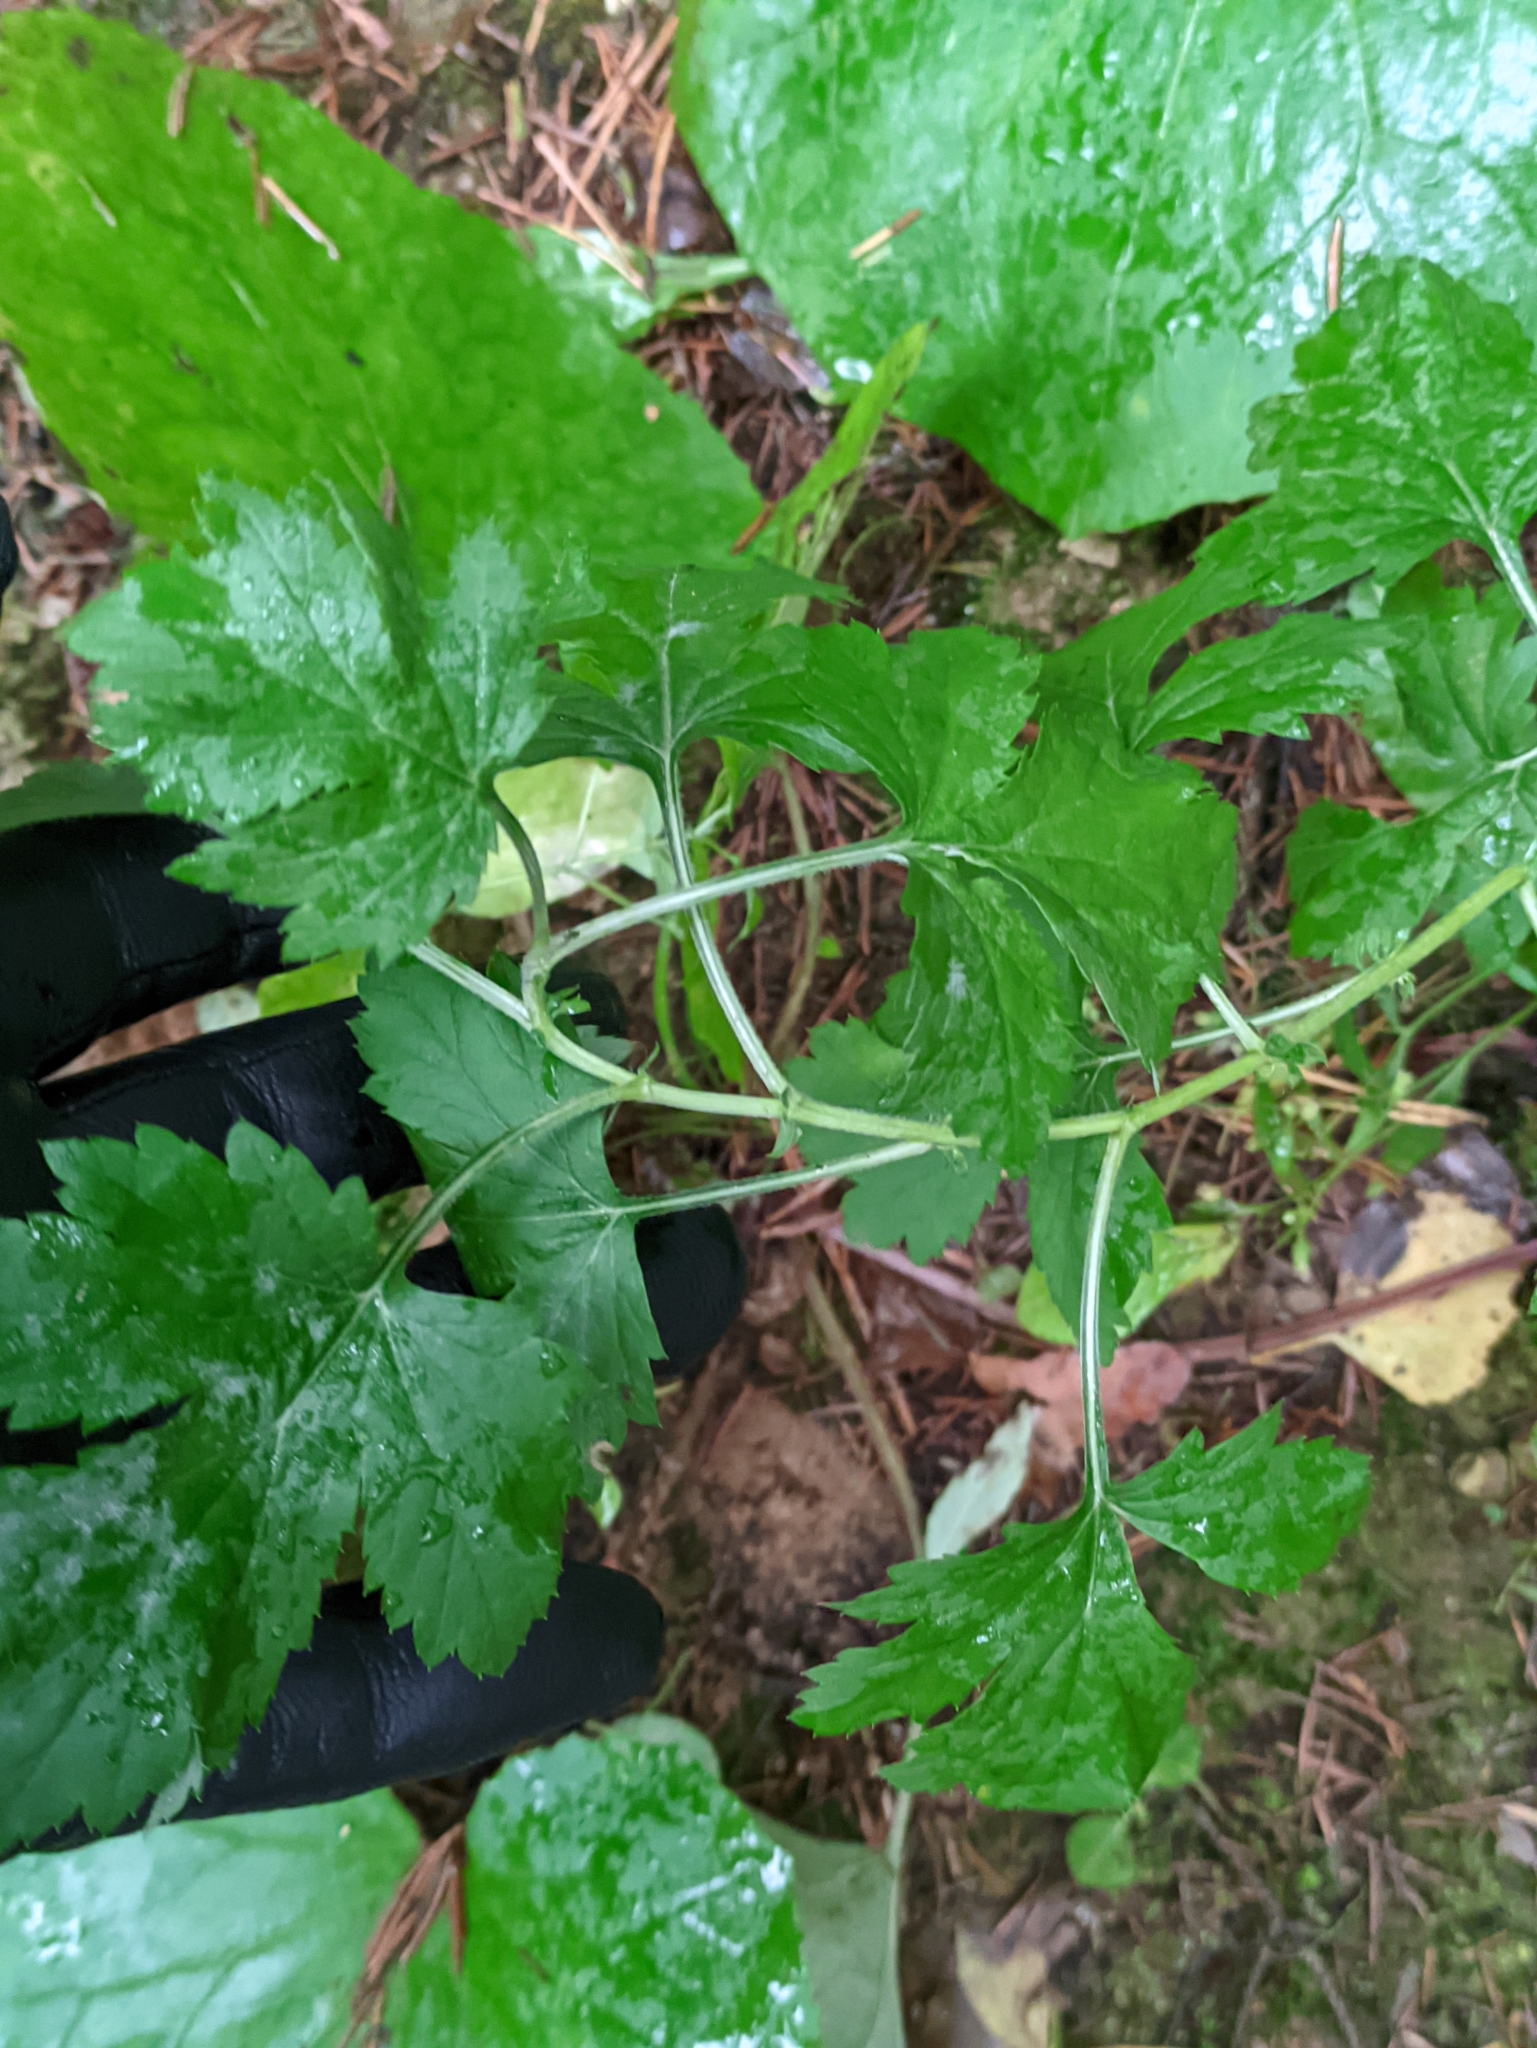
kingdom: Plantae
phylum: Tracheophyta
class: Magnoliopsida
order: Asterales
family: Asteraceae
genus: Artemisia
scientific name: Artemisia vulgaris
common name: Mugwort
